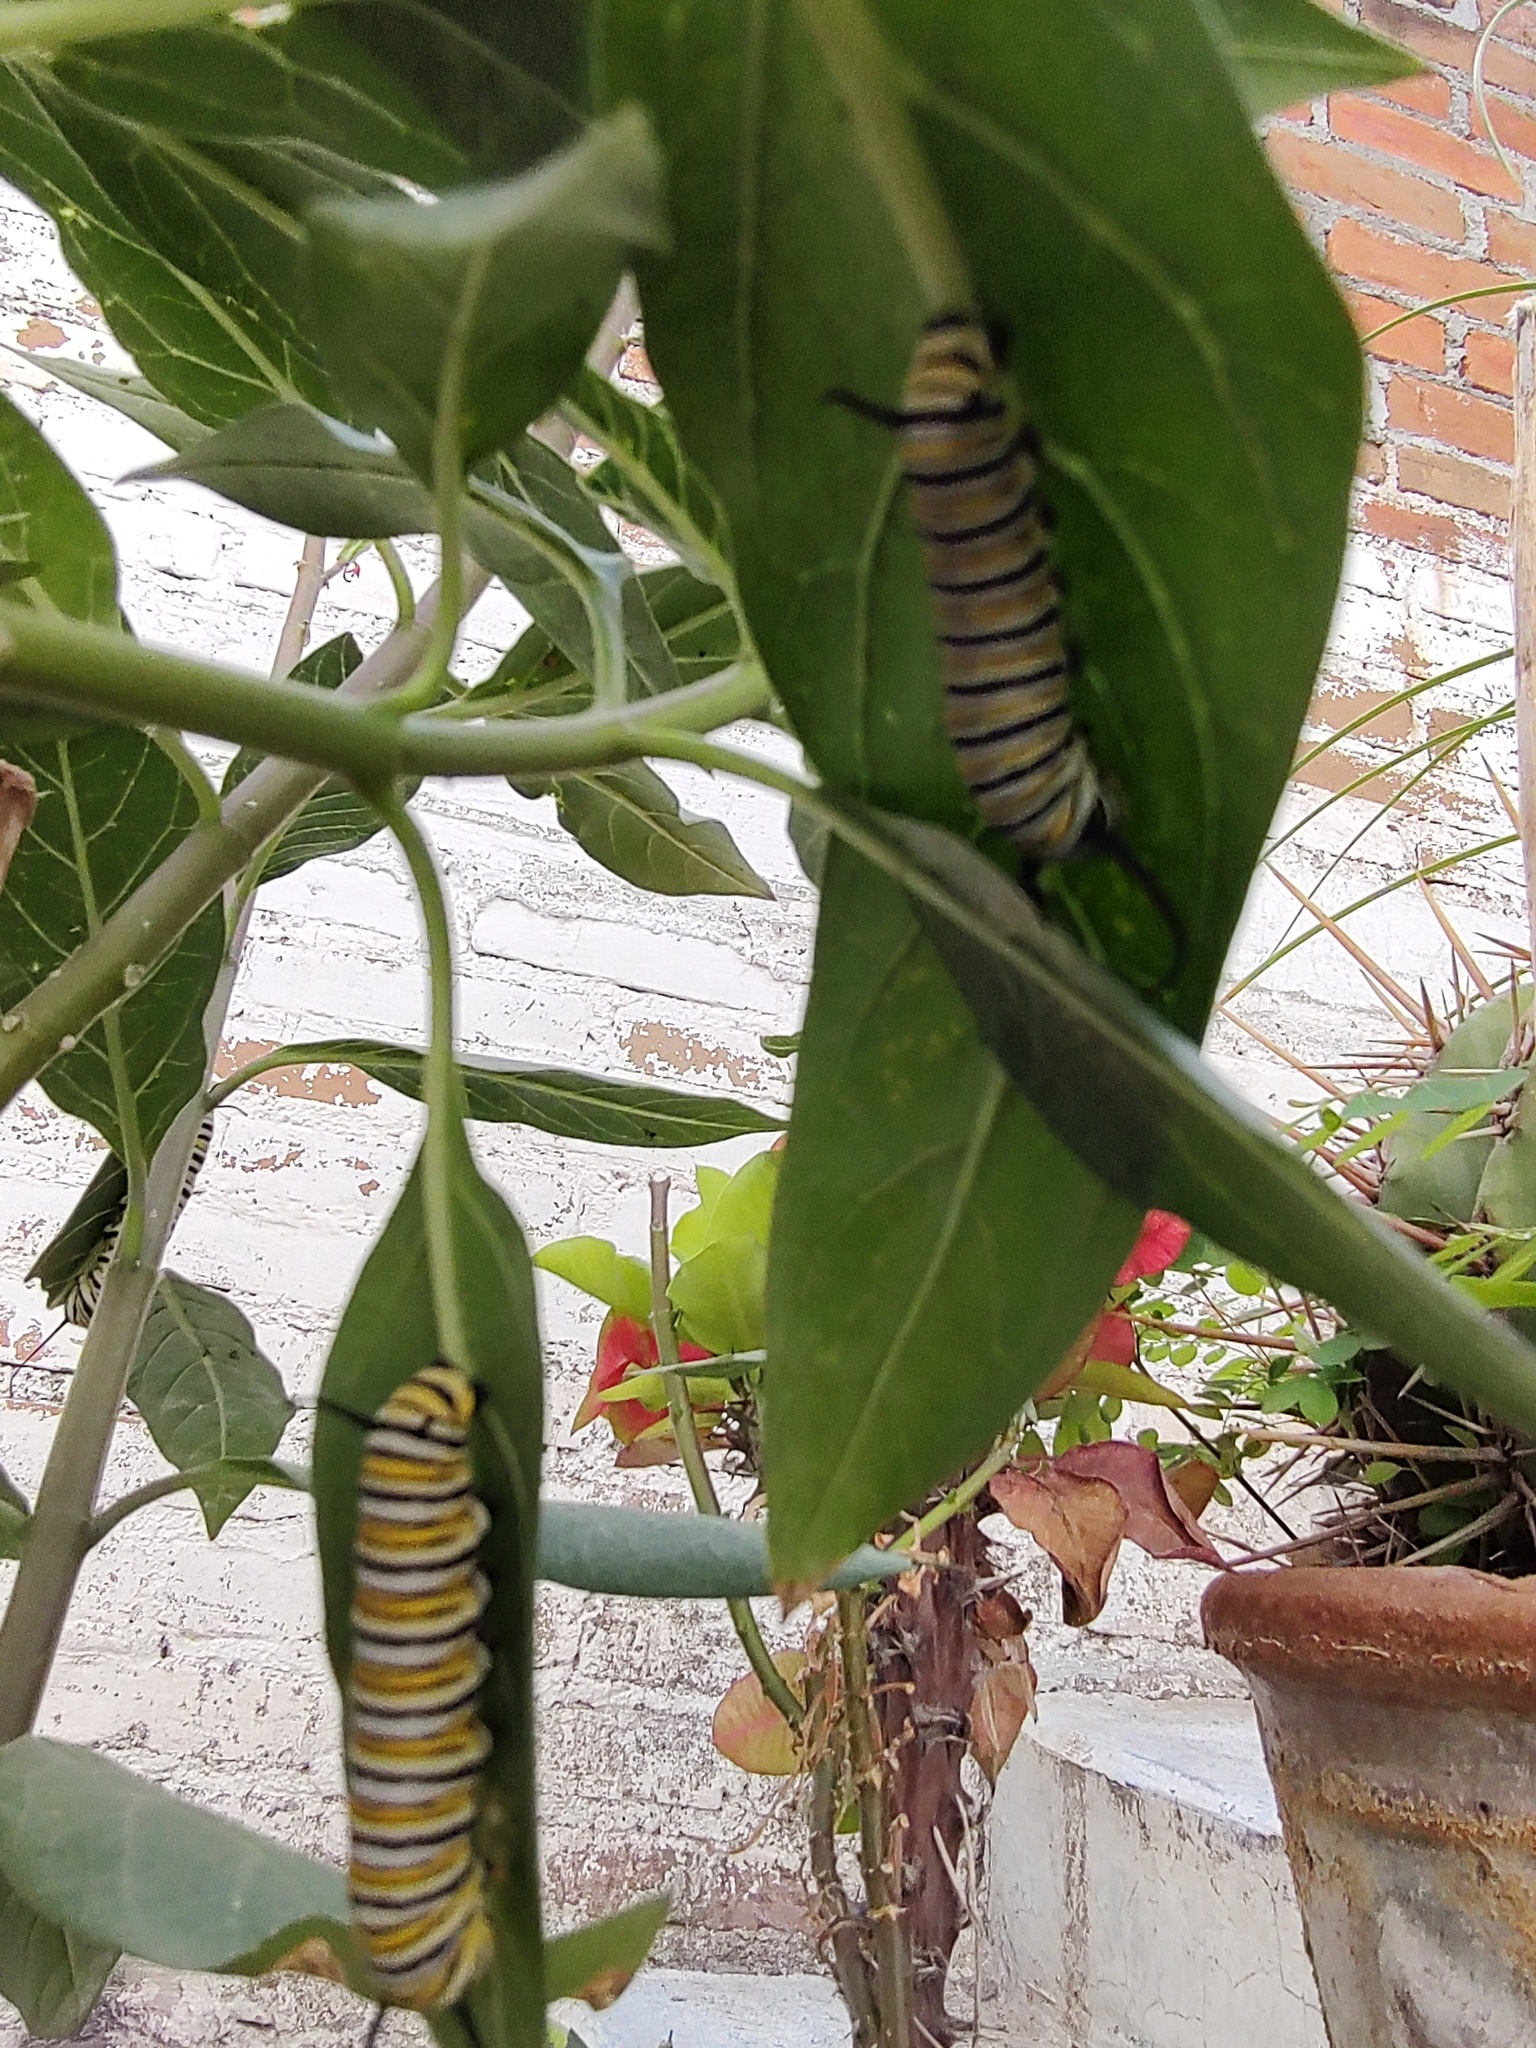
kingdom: Animalia
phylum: Arthropoda
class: Insecta
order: Lepidoptera
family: Nymphalidae
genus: Danaus
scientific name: Danaus plexippus
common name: Monarch
